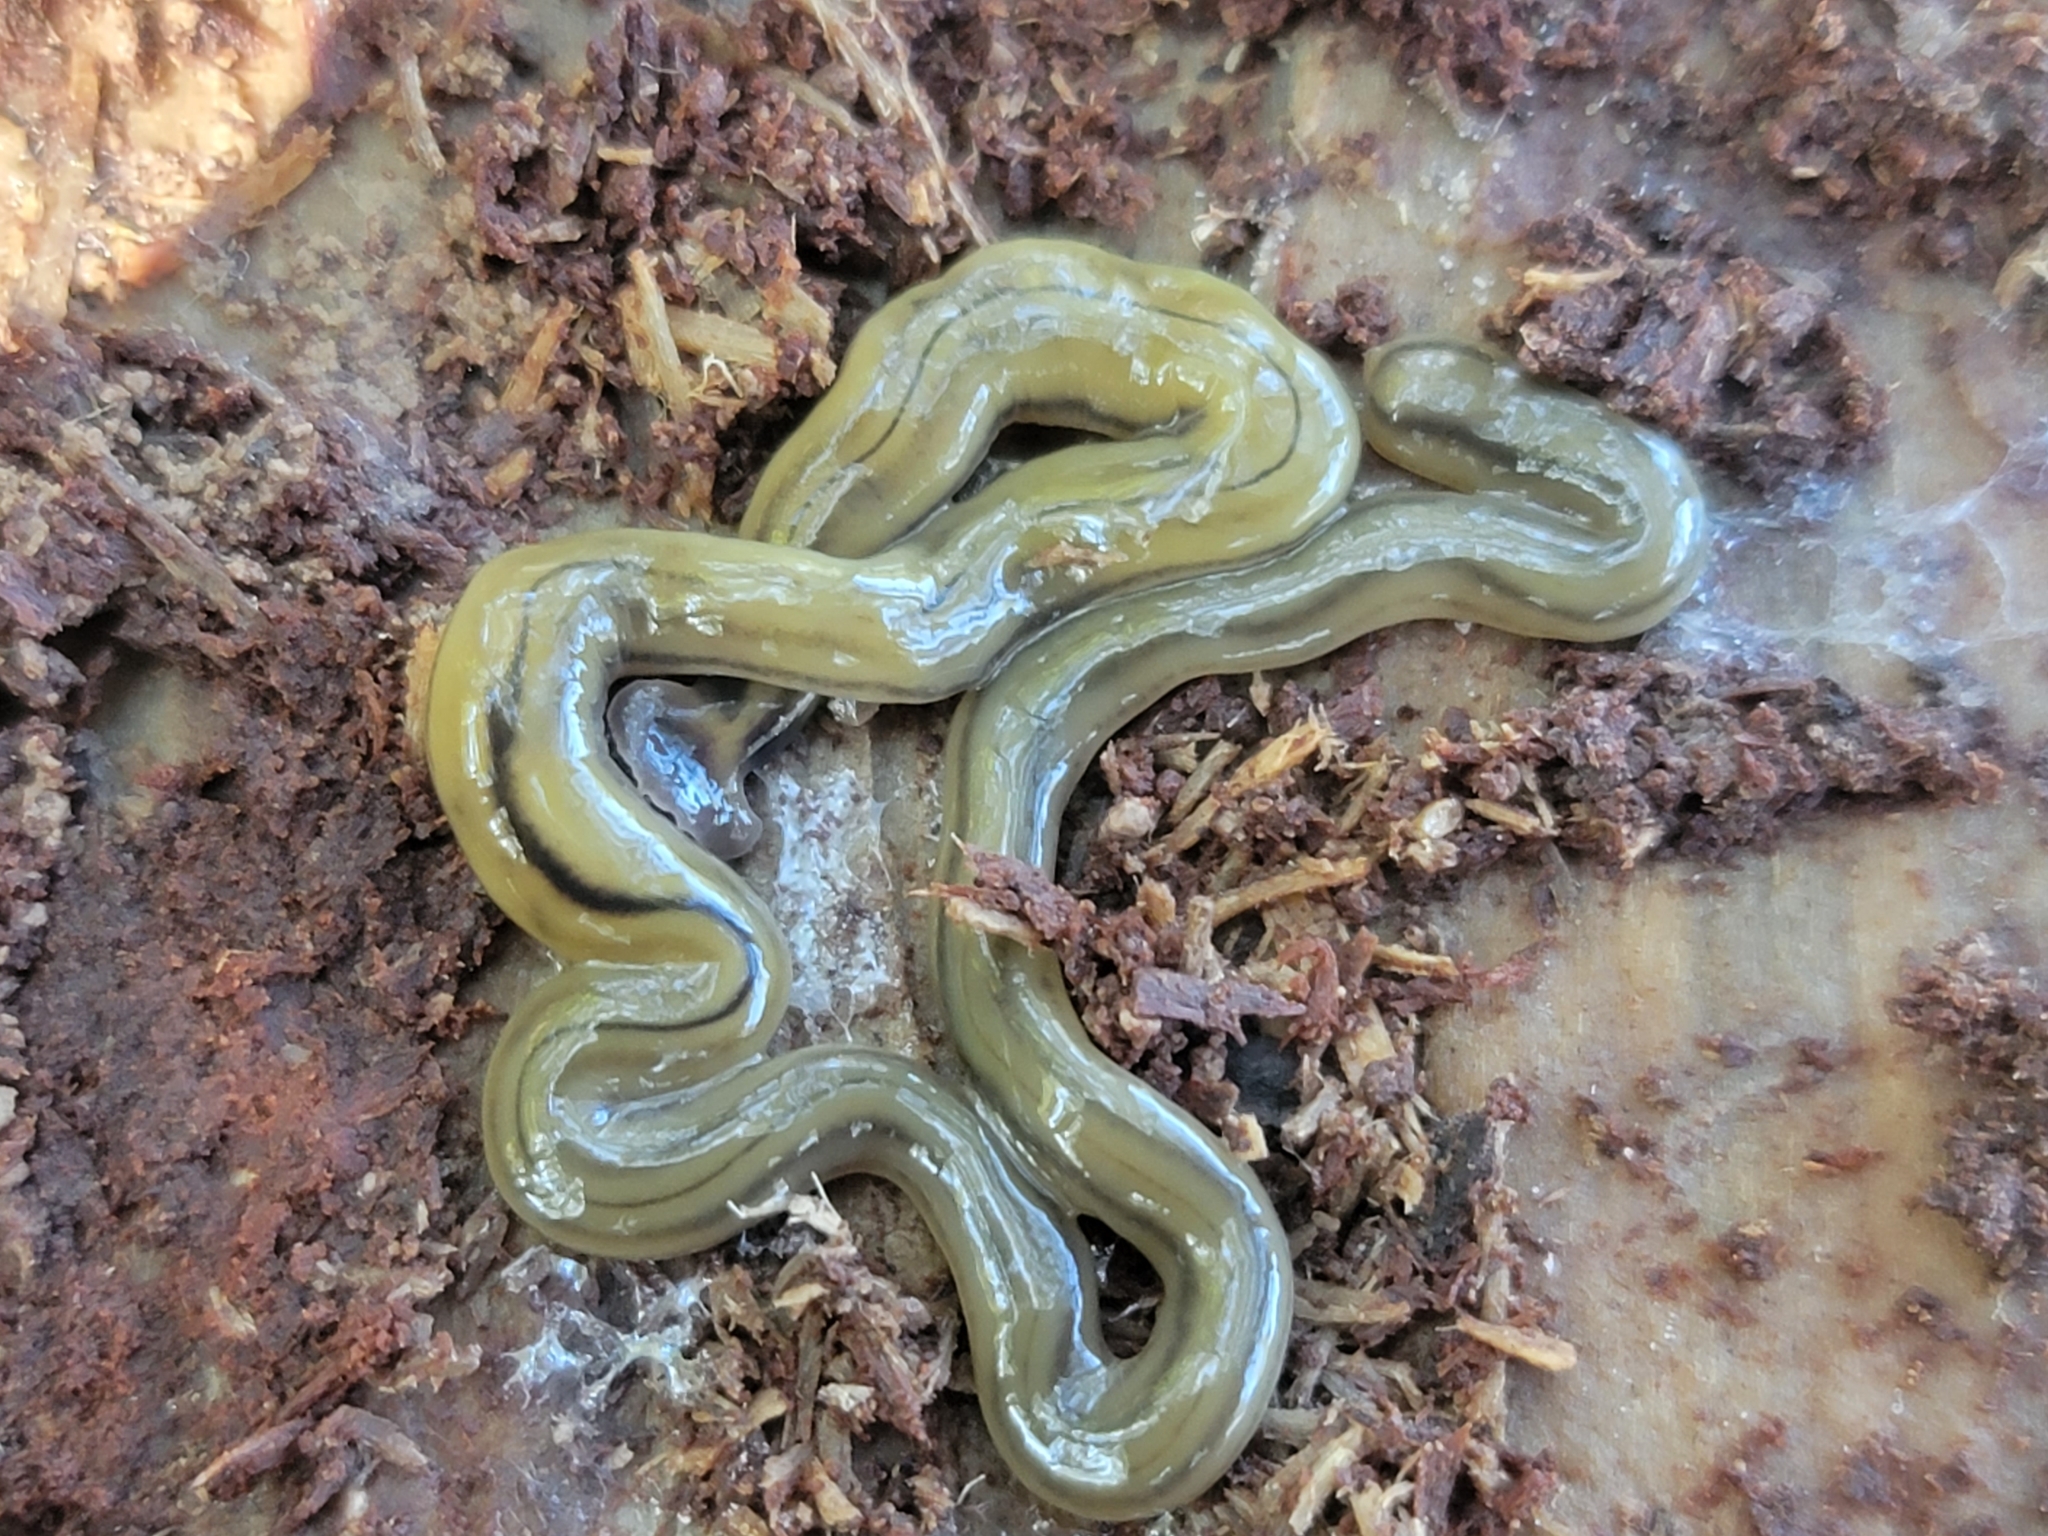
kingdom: Animalia
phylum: Platyhelminthes
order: Tricladida
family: Geoplanidae
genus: Bipalium
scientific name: Bipalium kewense
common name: Hammerhead flatworm
